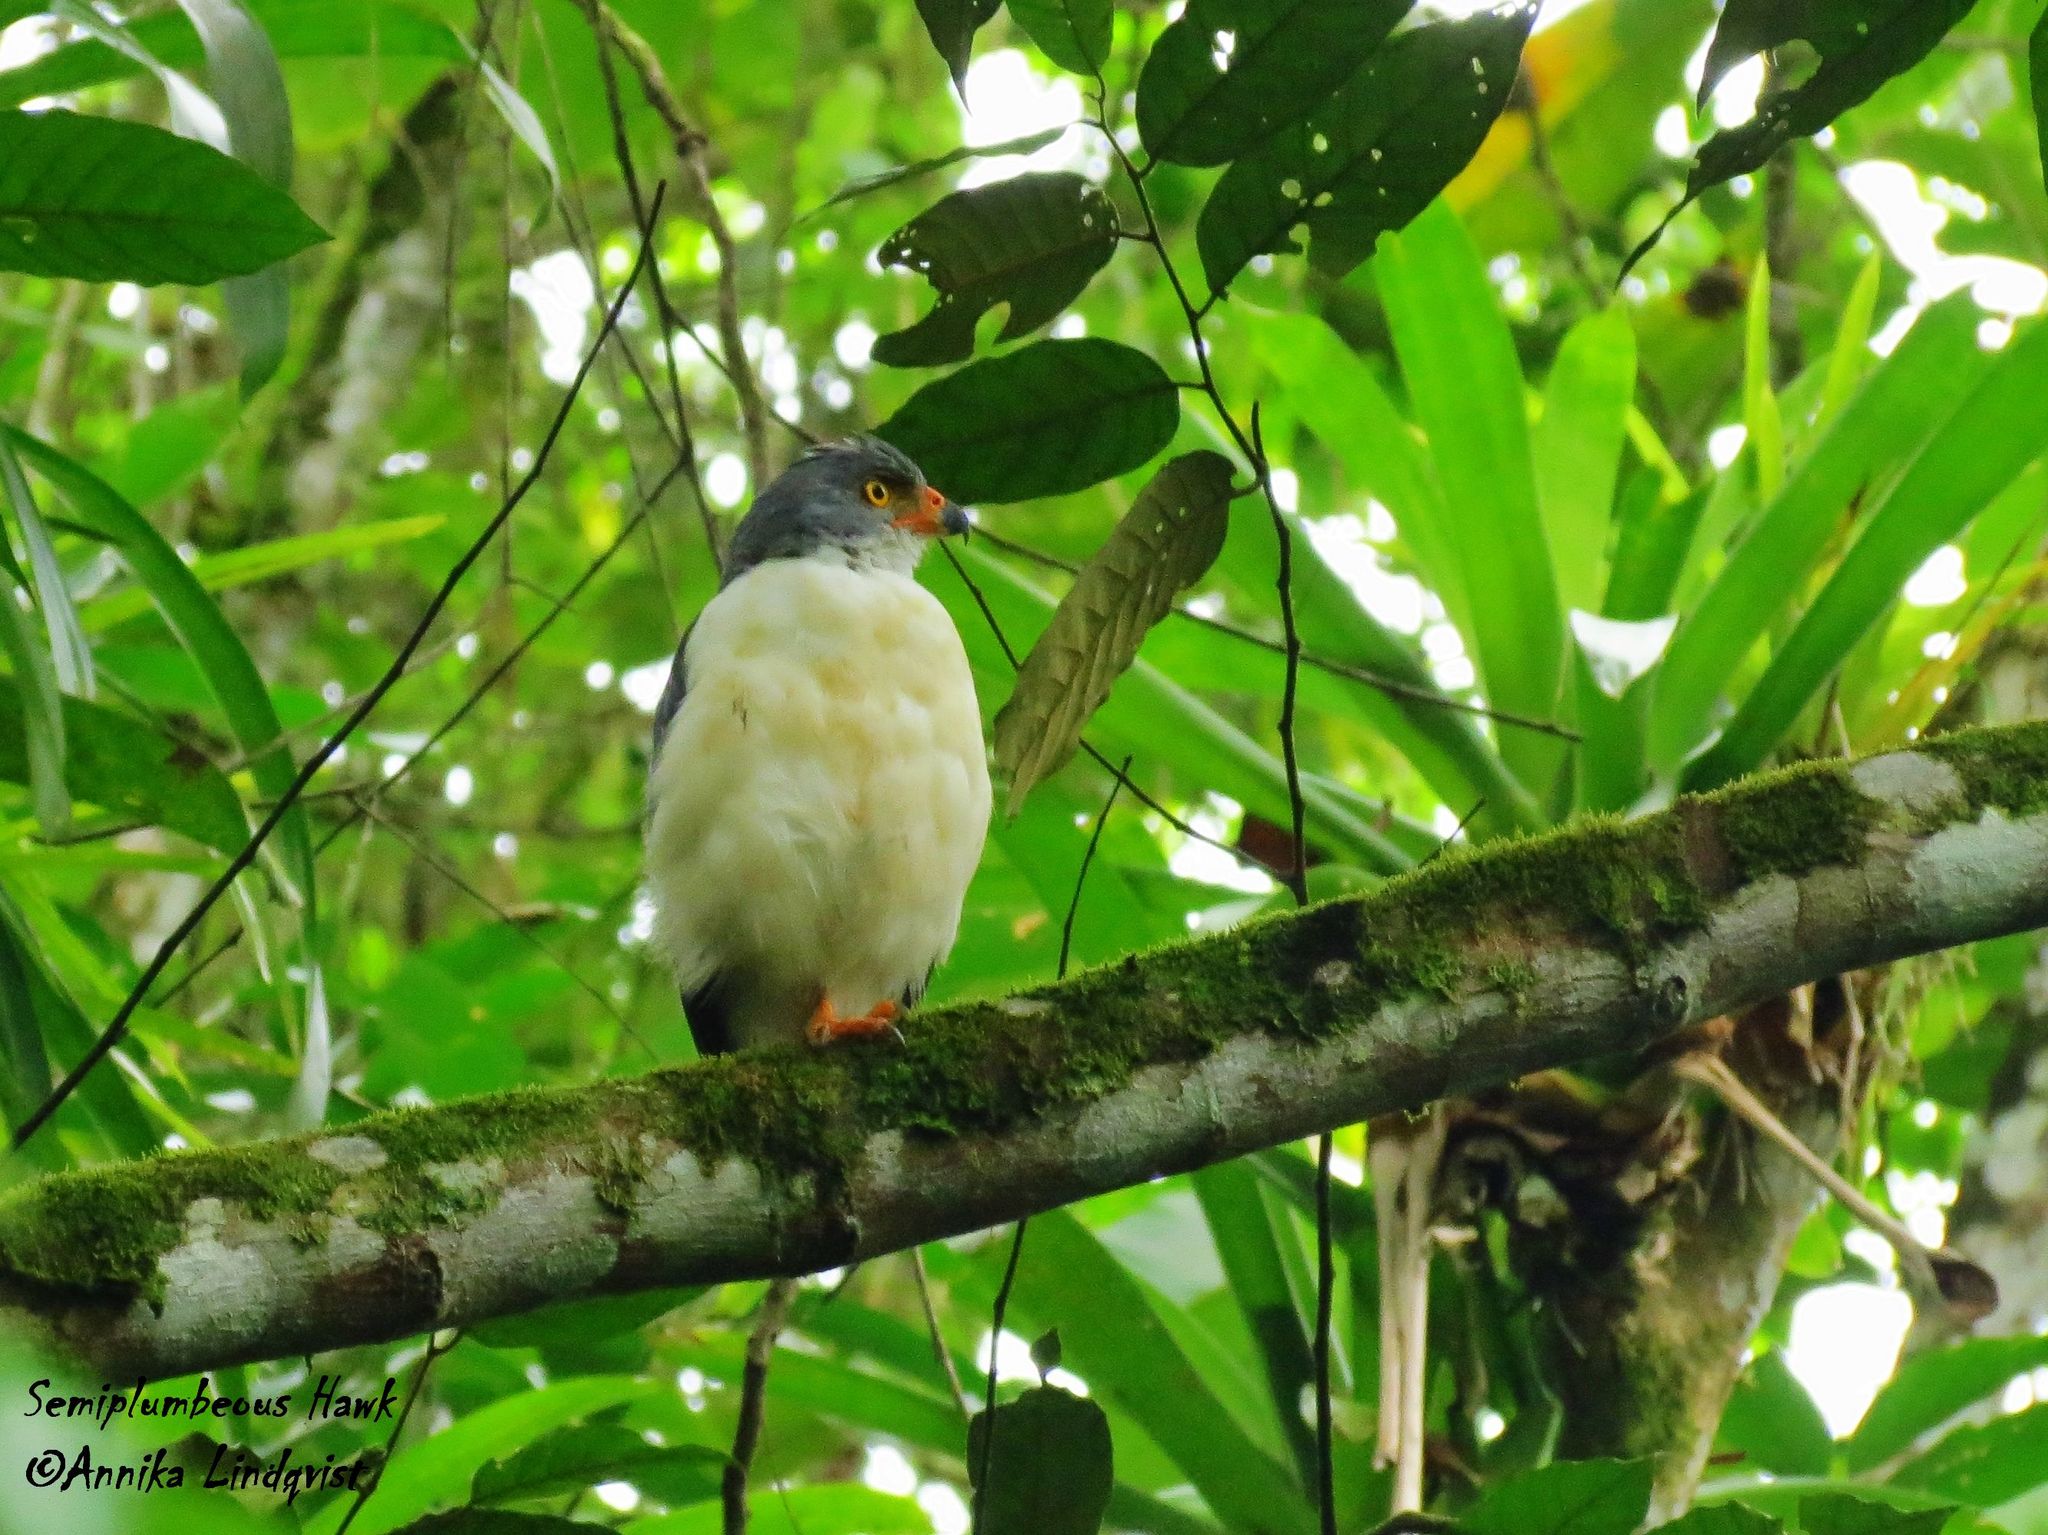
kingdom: Animalia
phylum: Chordata
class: Aves
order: Accipitriformes
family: Accipitridae
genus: Leucopternis
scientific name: Leucopternis semiplumbeus
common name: Semiplumbeous hawk
